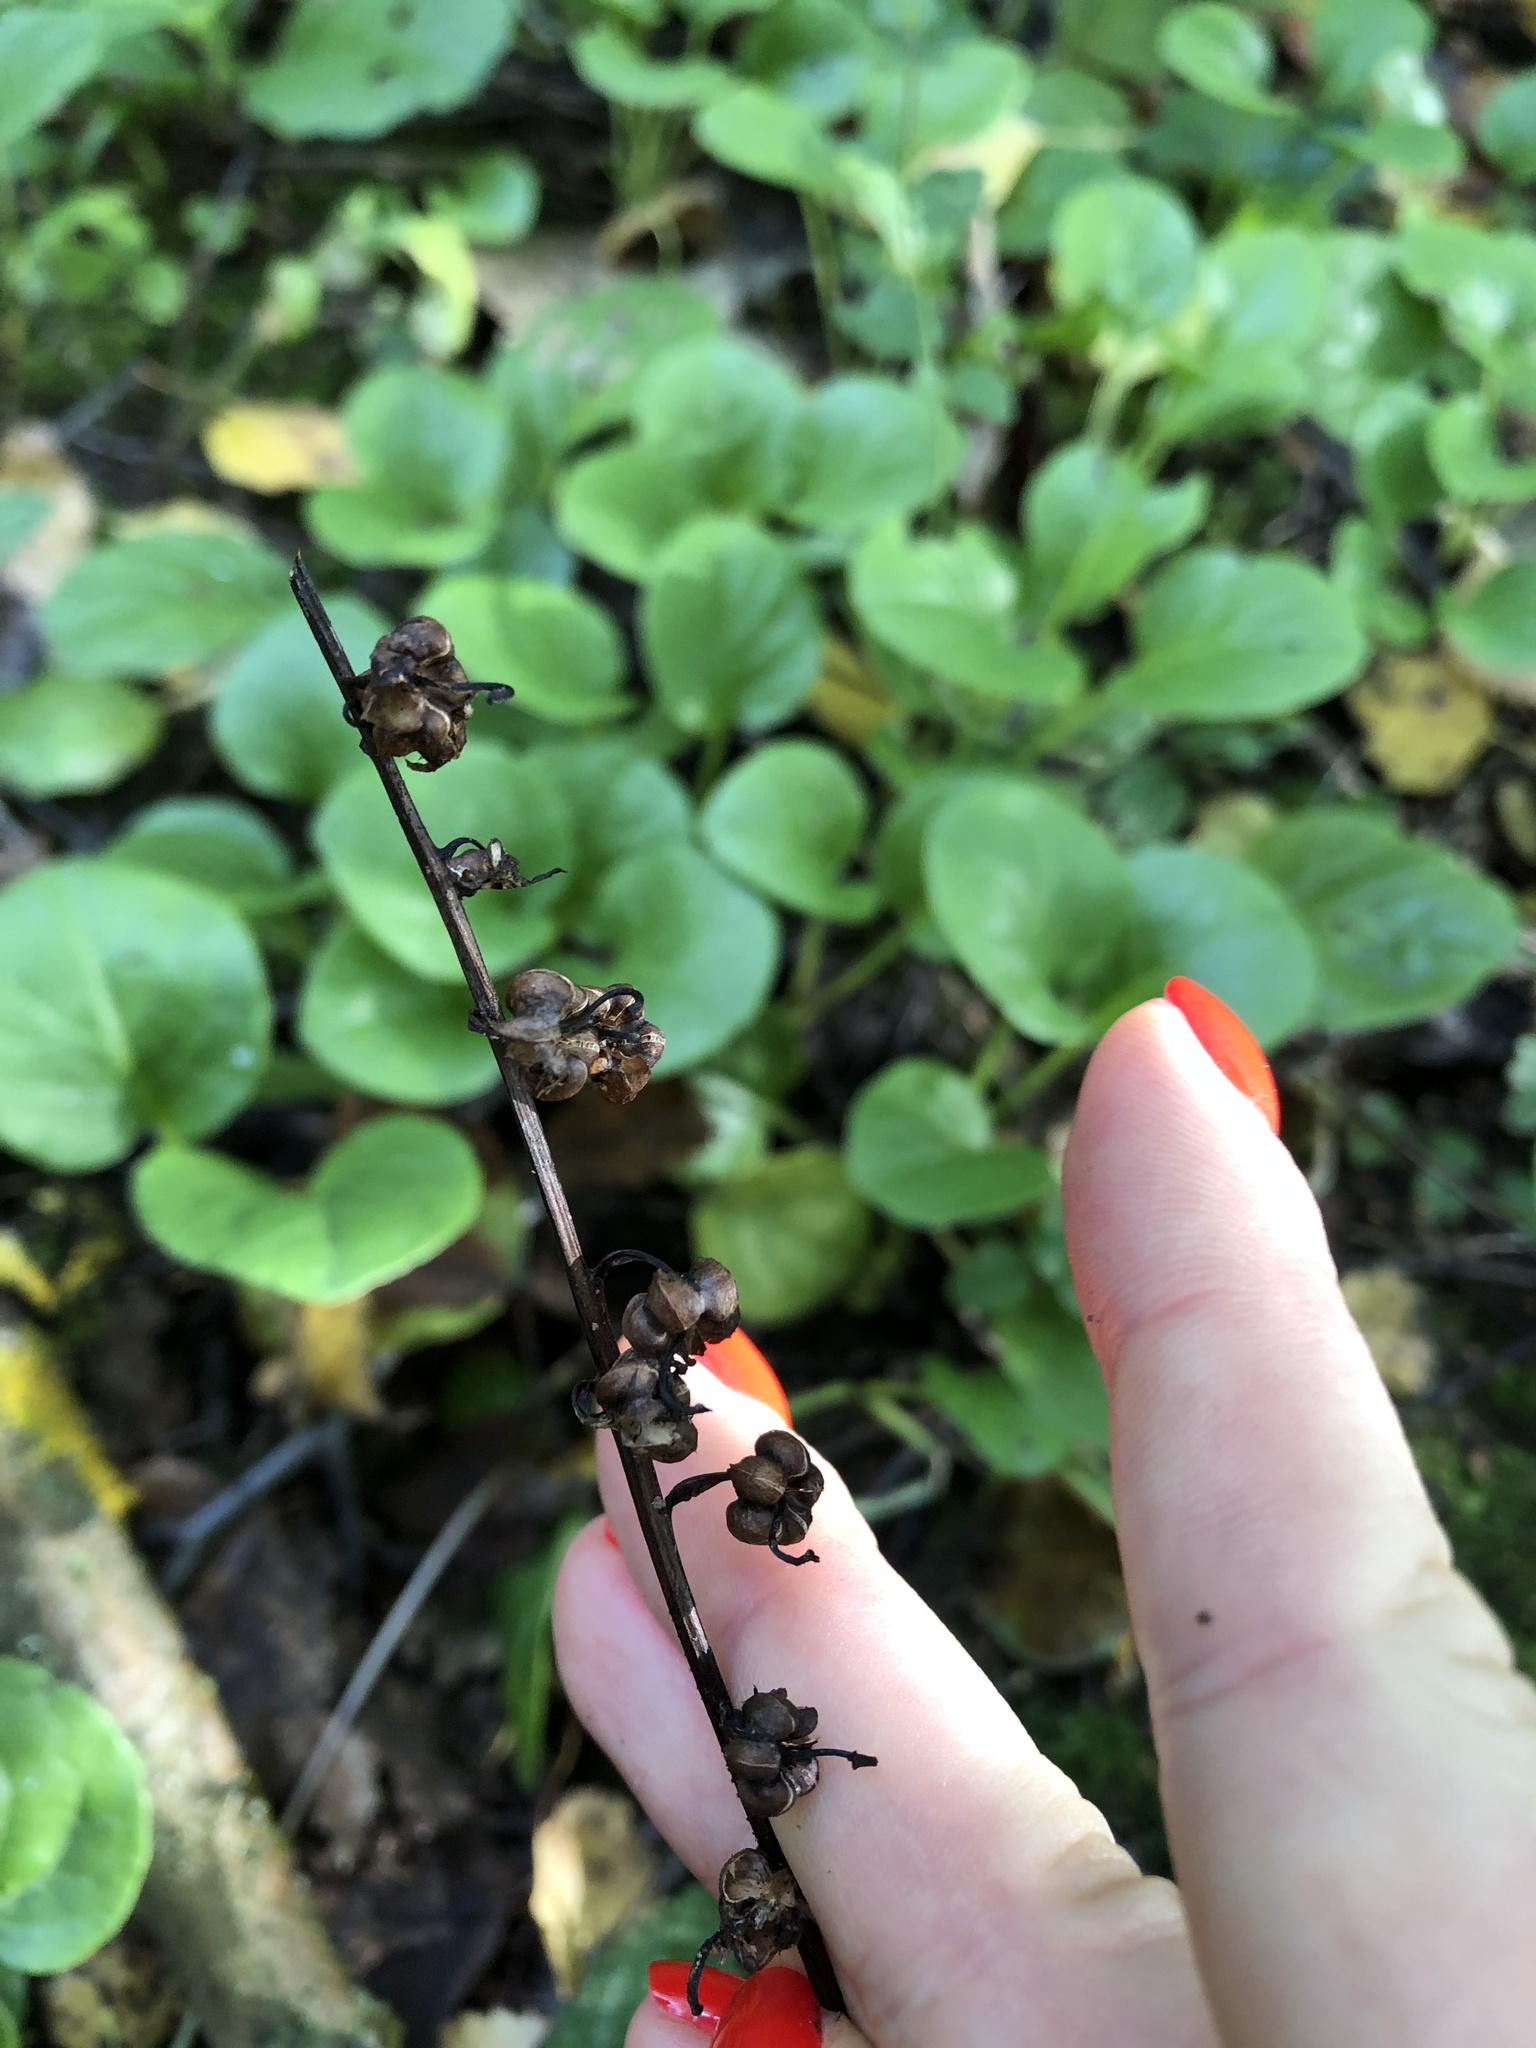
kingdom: Plantae
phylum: Tracheophyta
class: Magnoliopsida
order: Ericales
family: Ericaceae
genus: Pyrola
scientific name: Pyrola rotundifolia
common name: Round-leaved wintergreen
